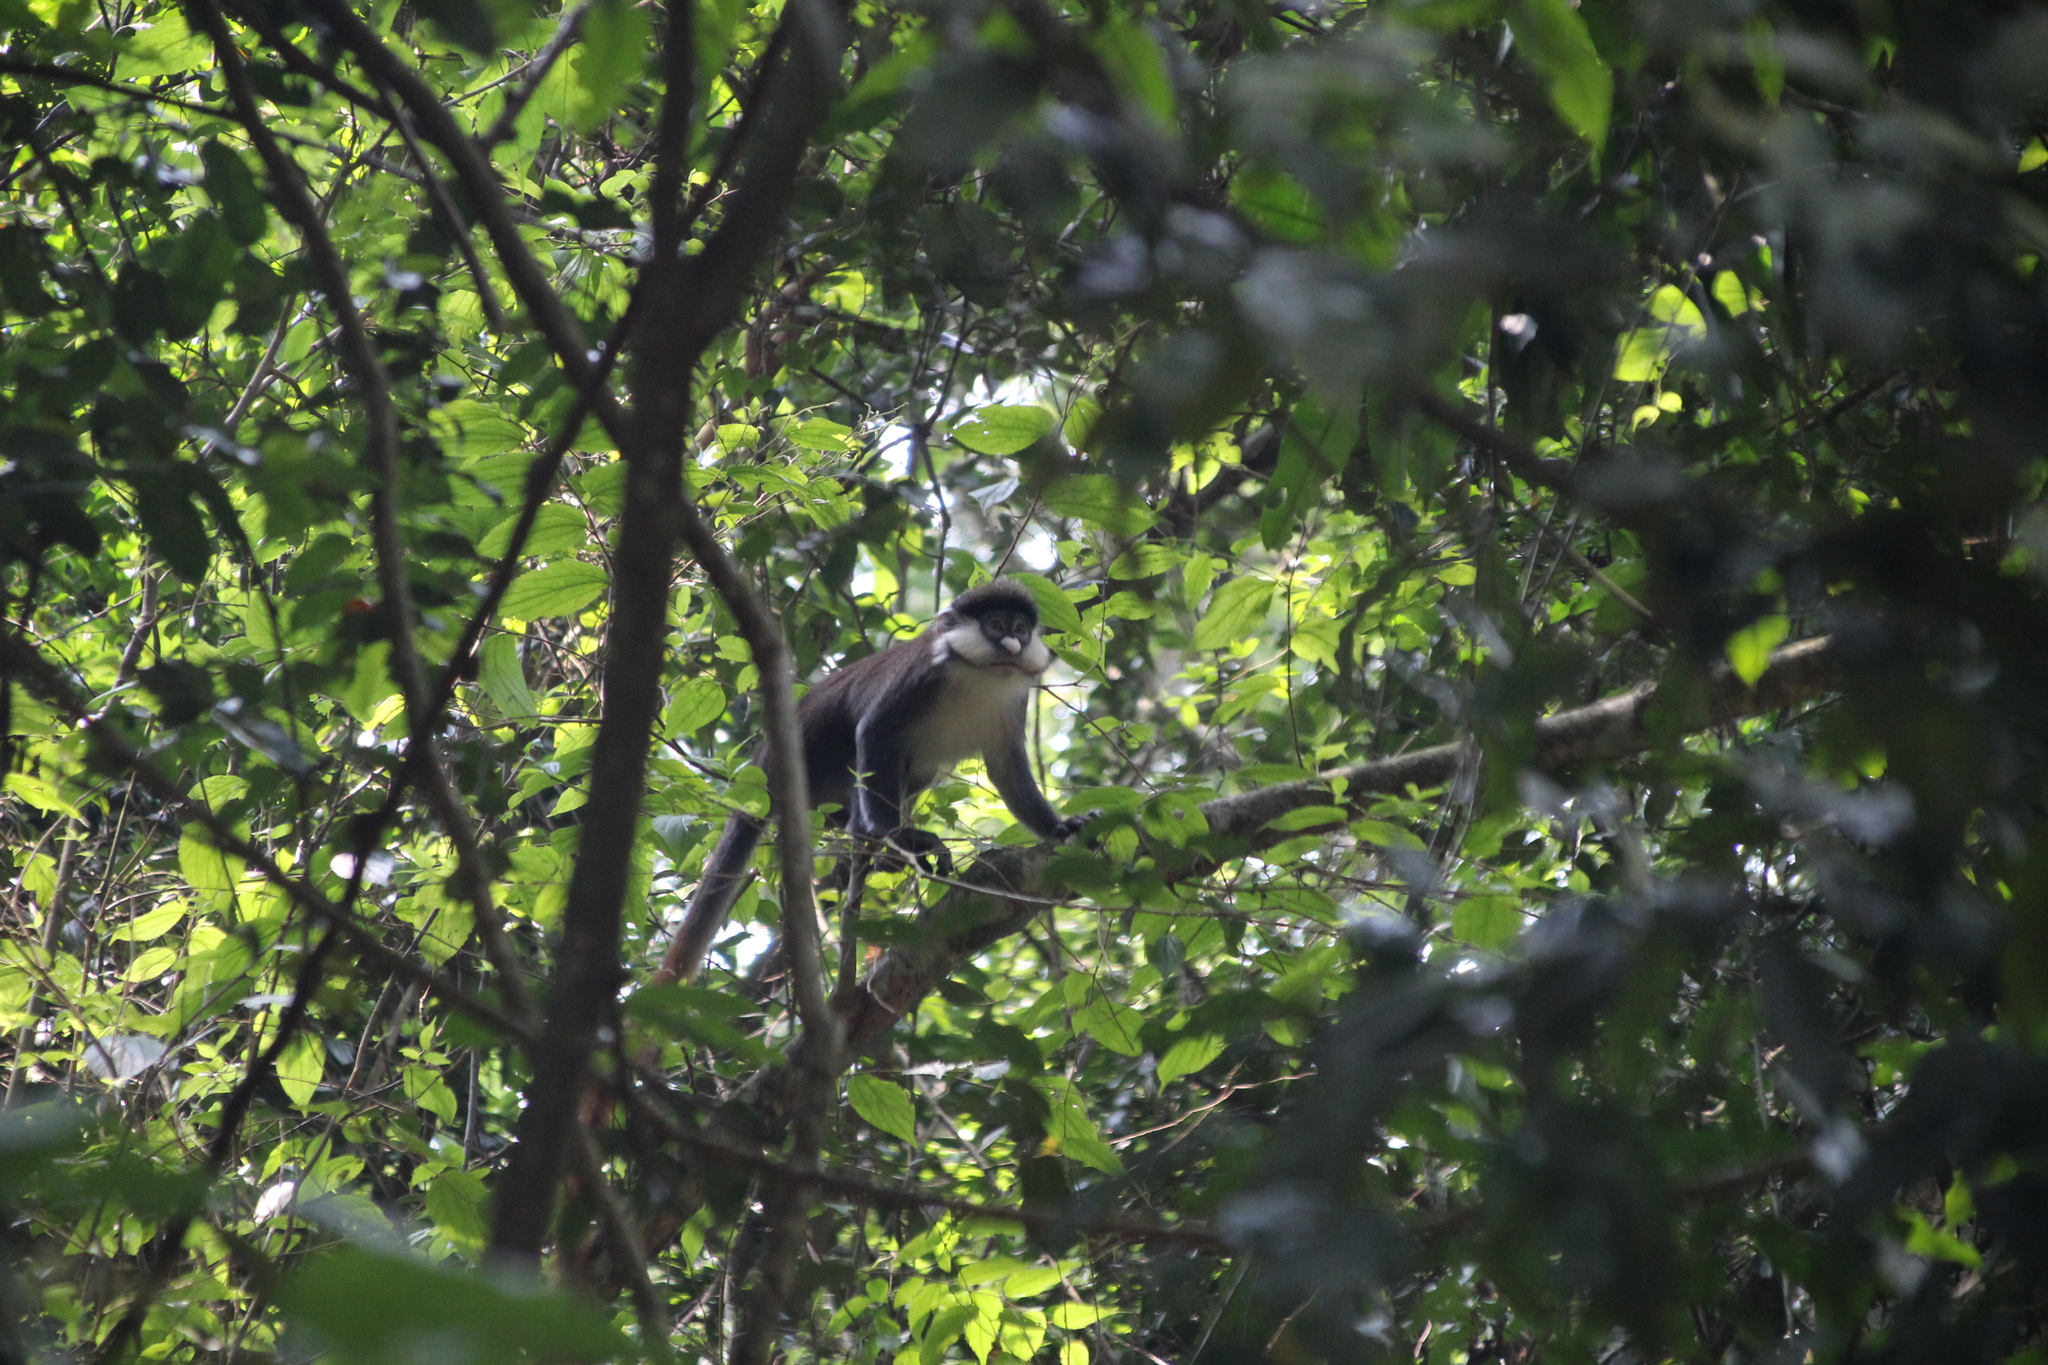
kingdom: Animalia
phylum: Chordata
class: Mammalia
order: Primates
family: Cercopithecidae
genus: Cercopithecus
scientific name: Cercopithecus ascanius
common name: Red-tailed monkey
